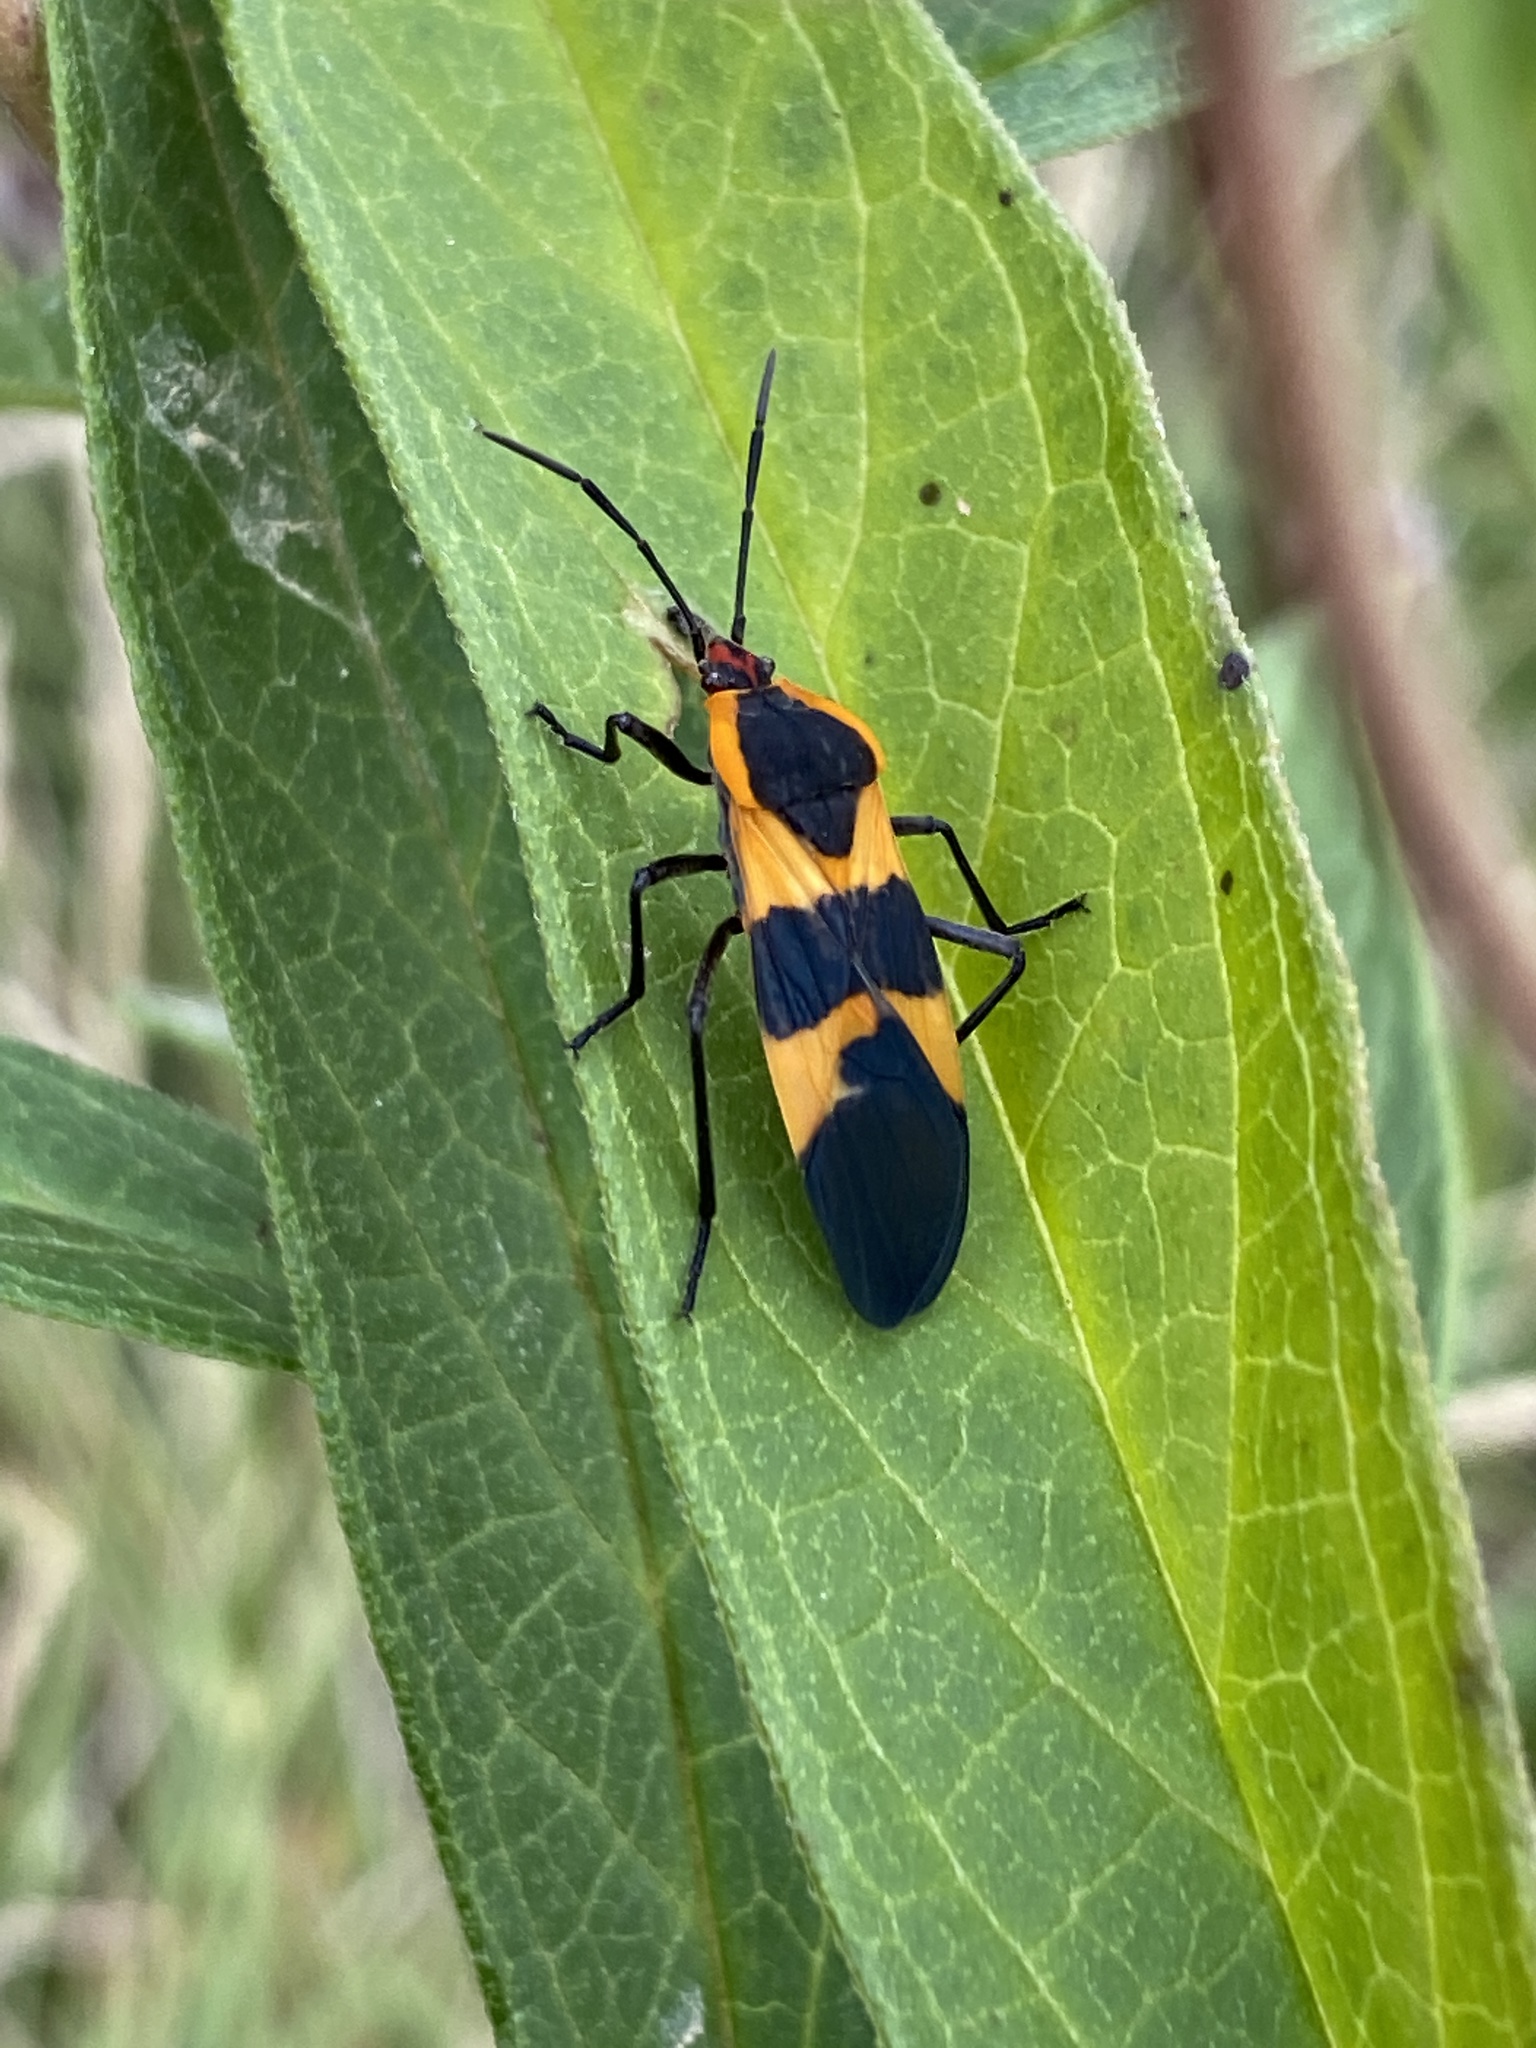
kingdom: Animalia
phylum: Arthropoda
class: Insecta
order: Hemiptera
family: Lygaeidae
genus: Oncopeltus
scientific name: Oncopeltus fasciatus
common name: Large milkweed bug
